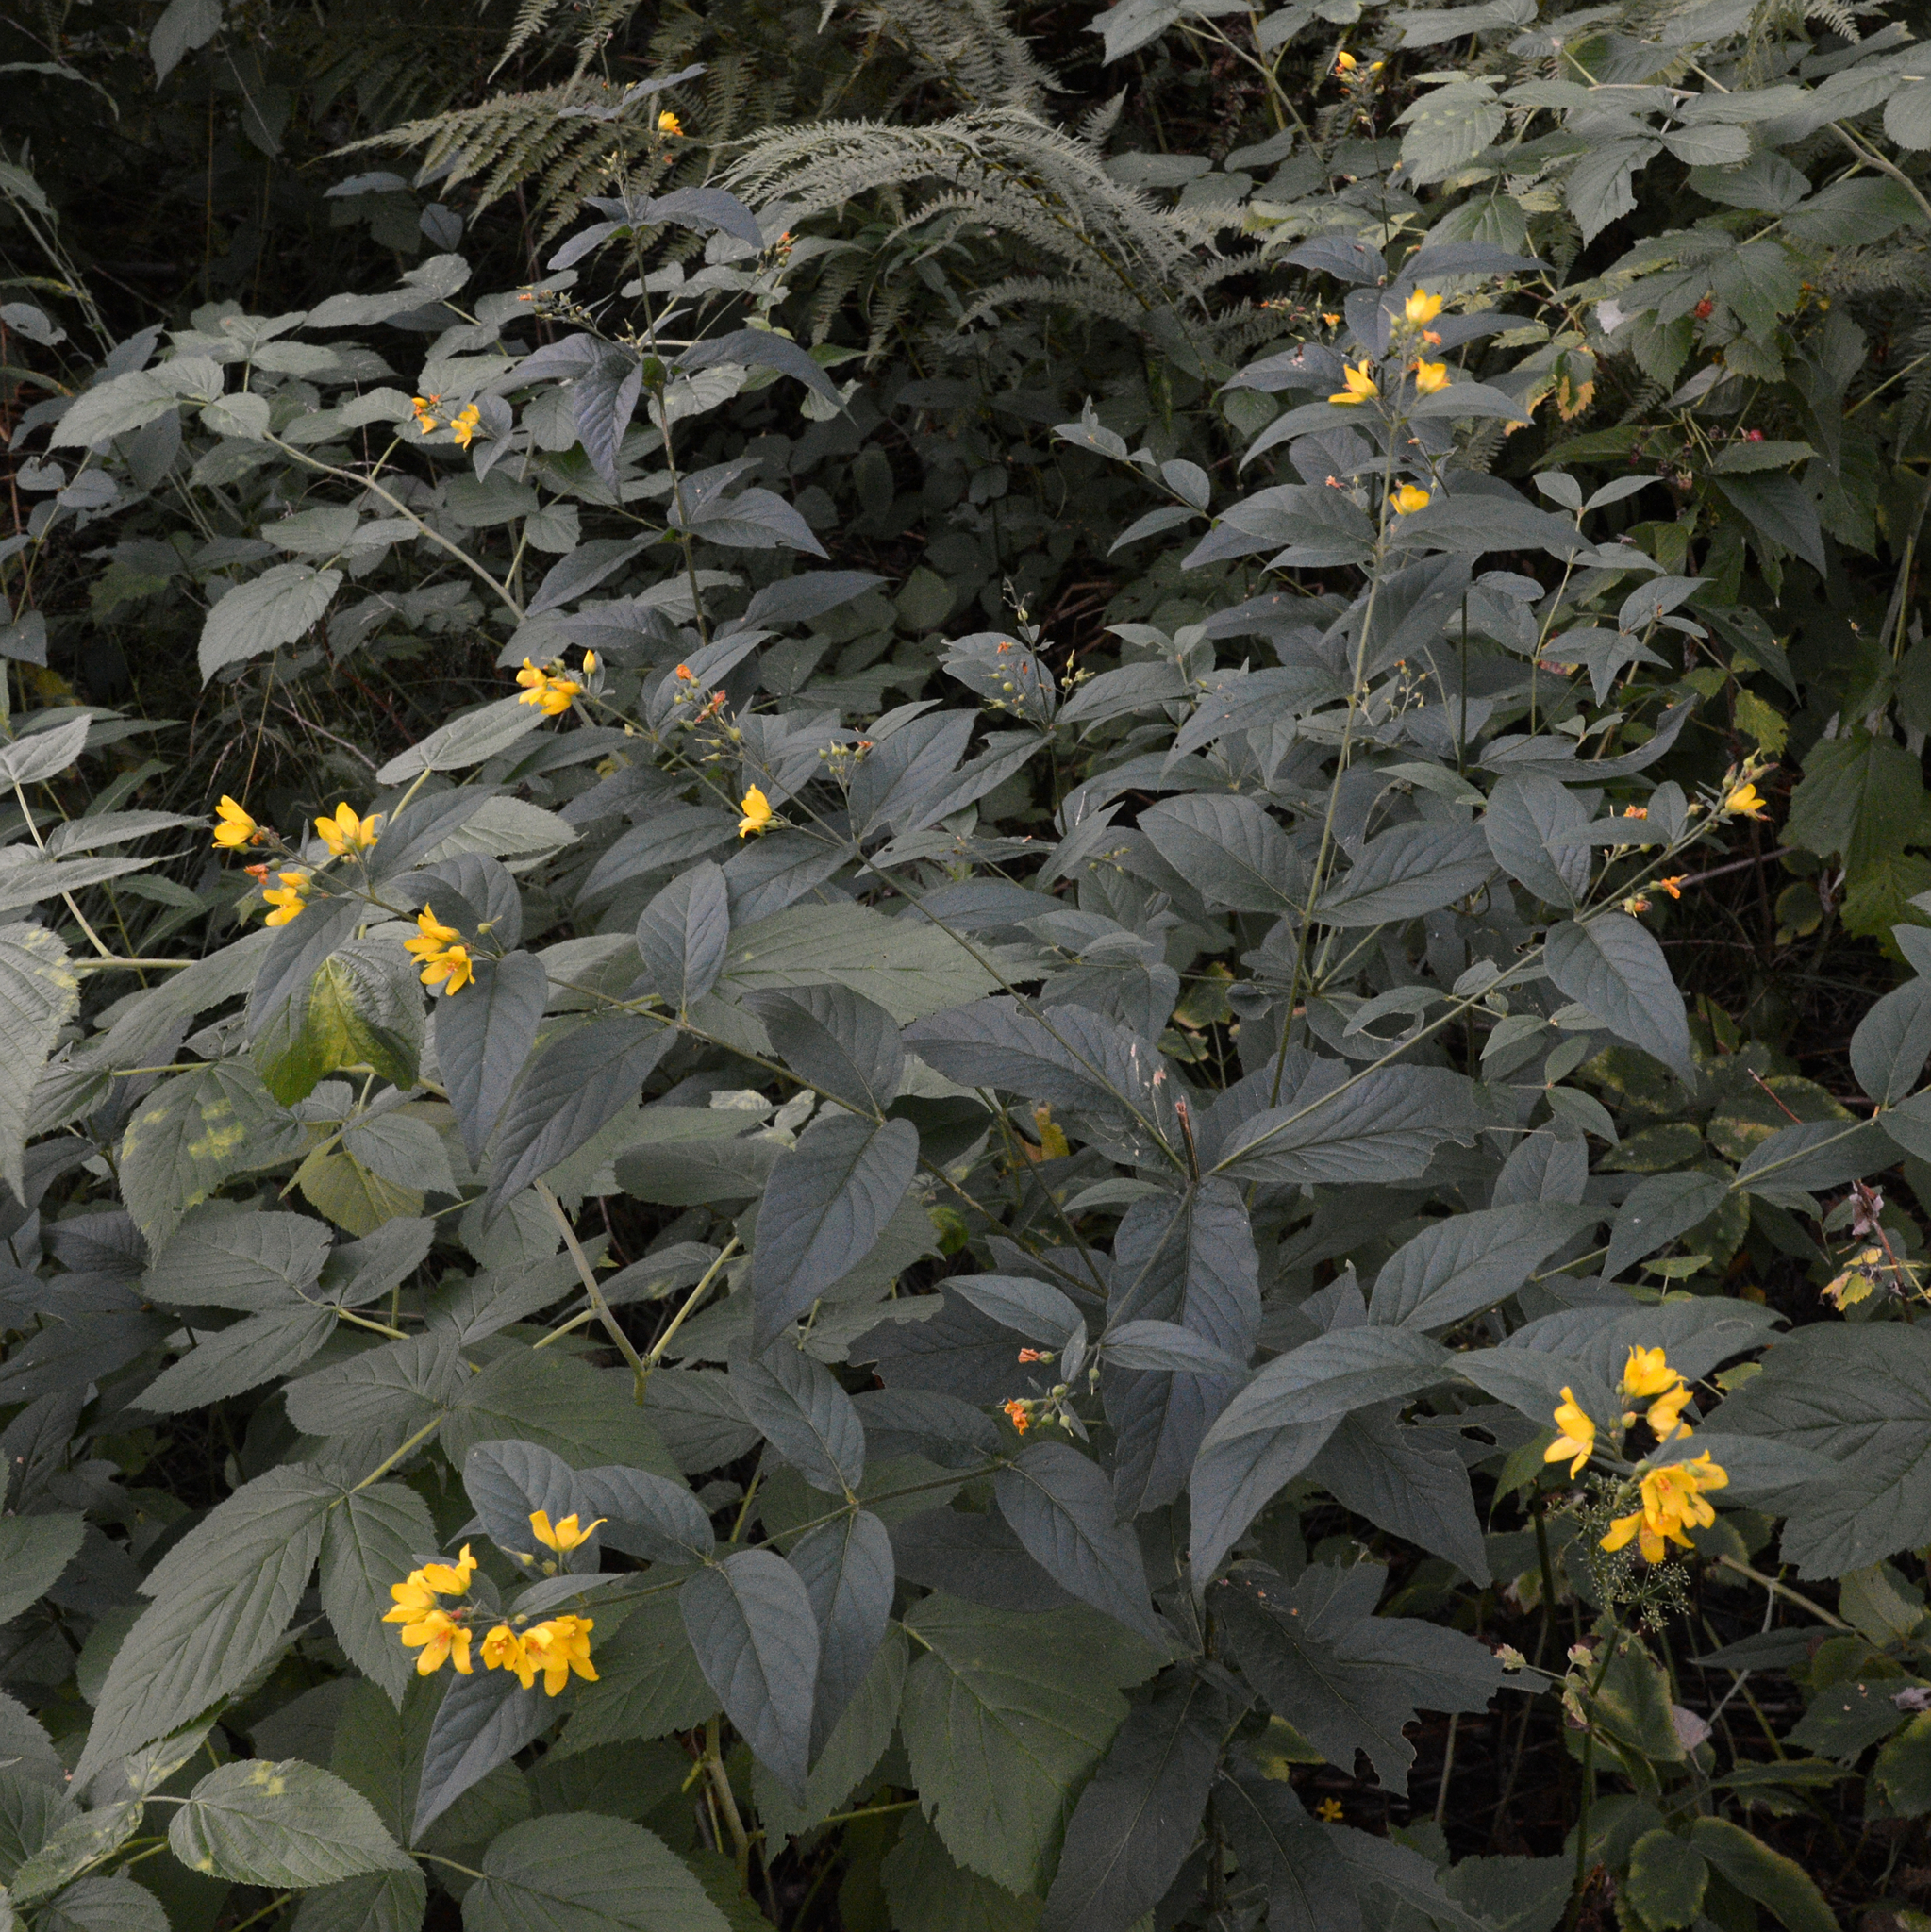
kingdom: Plantae
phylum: Tracheophyta
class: Magnoliopsida
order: Ericales
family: Primulaceae
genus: Lysimachia
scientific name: Lysimachia vulgaris
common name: Yellow loosestrife
